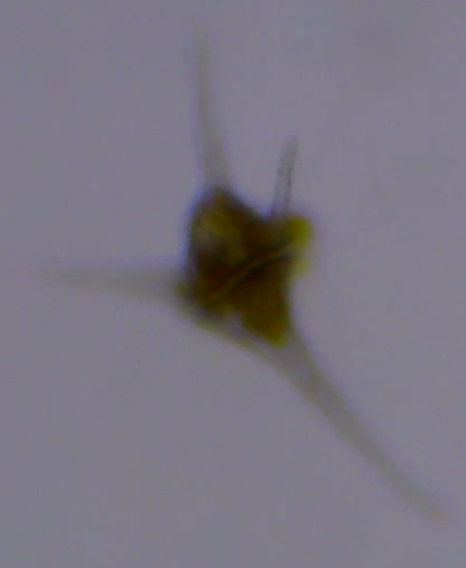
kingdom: Chromista
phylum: Myzozoa
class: Dinophyceae
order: Gonyaulacales
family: Ceratiaceae
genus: Ceratium
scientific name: Ceratium hirundinella
